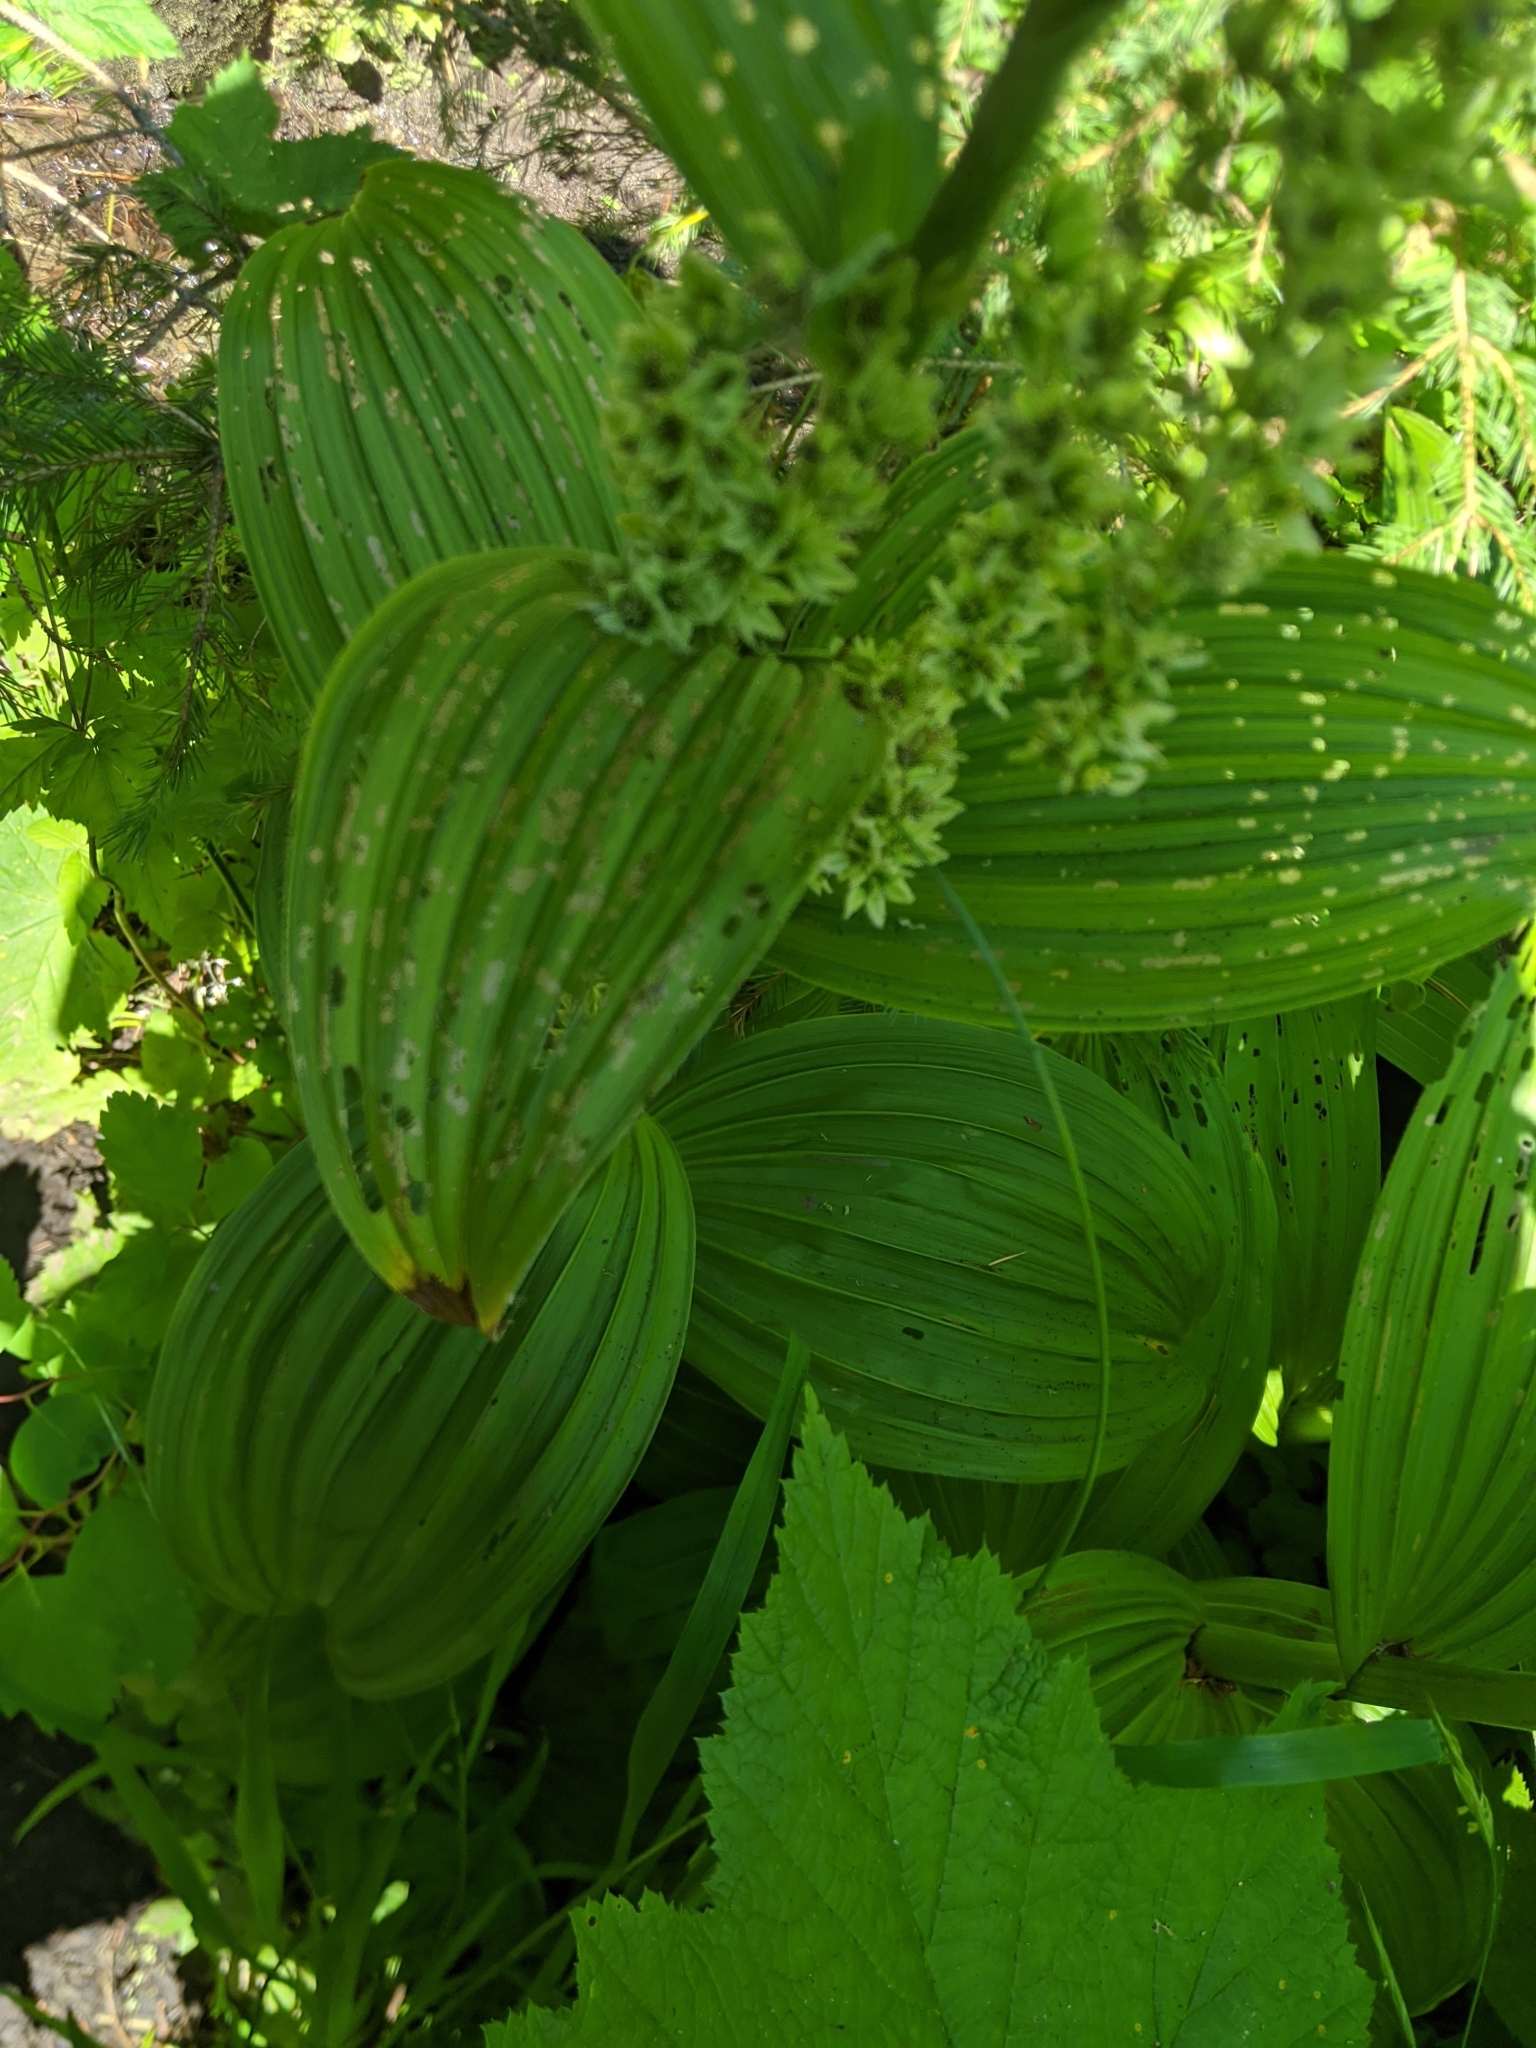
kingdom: Plantae
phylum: Tracheophyta
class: Liliopsida
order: Liliales
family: Melanthiaceae
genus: Veratrum
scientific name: Veratrum viride
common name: American false hellebore
